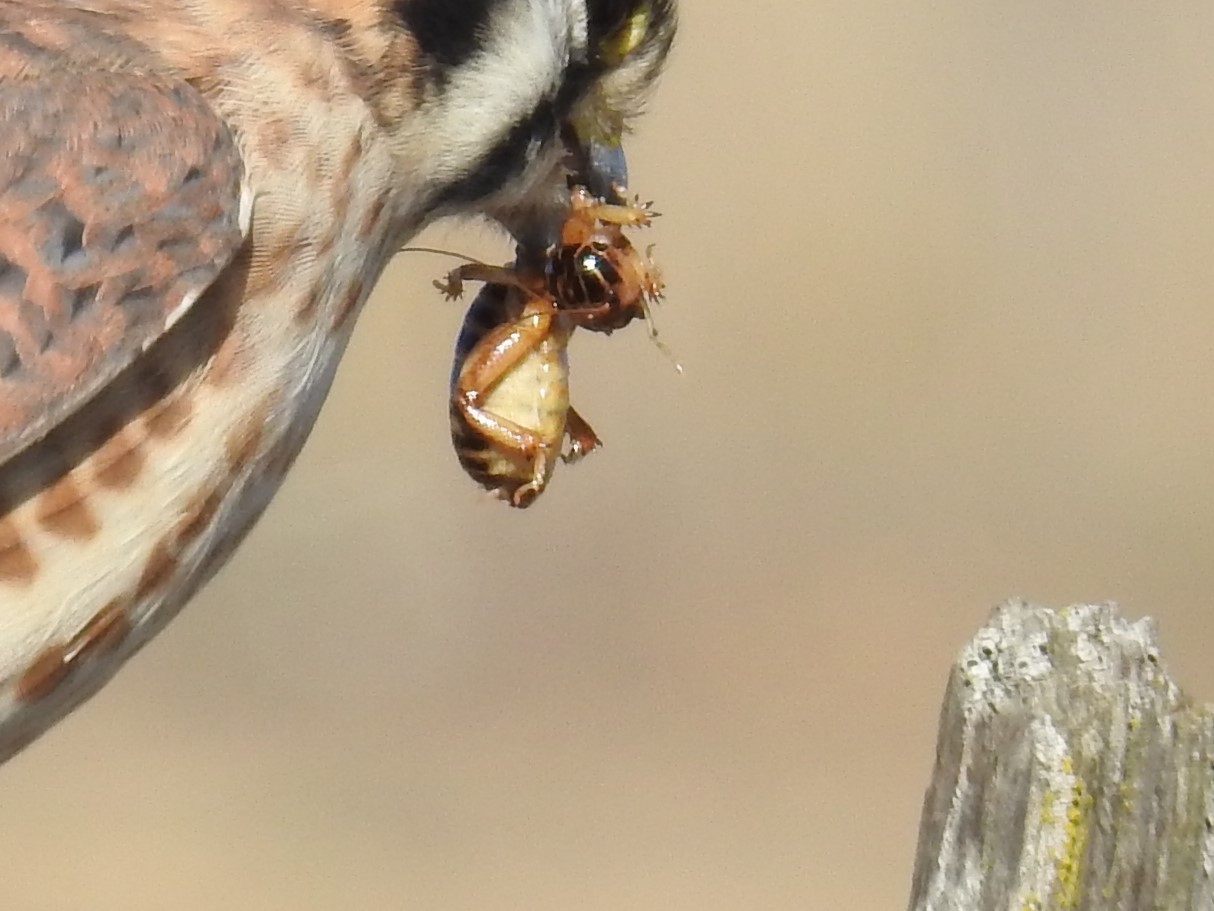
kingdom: Animalia
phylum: Arthropoda
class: Insecta
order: Orthoptera
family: Stenopelmatidae
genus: Ammopelmatus
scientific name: Ammopelmatus pictus
